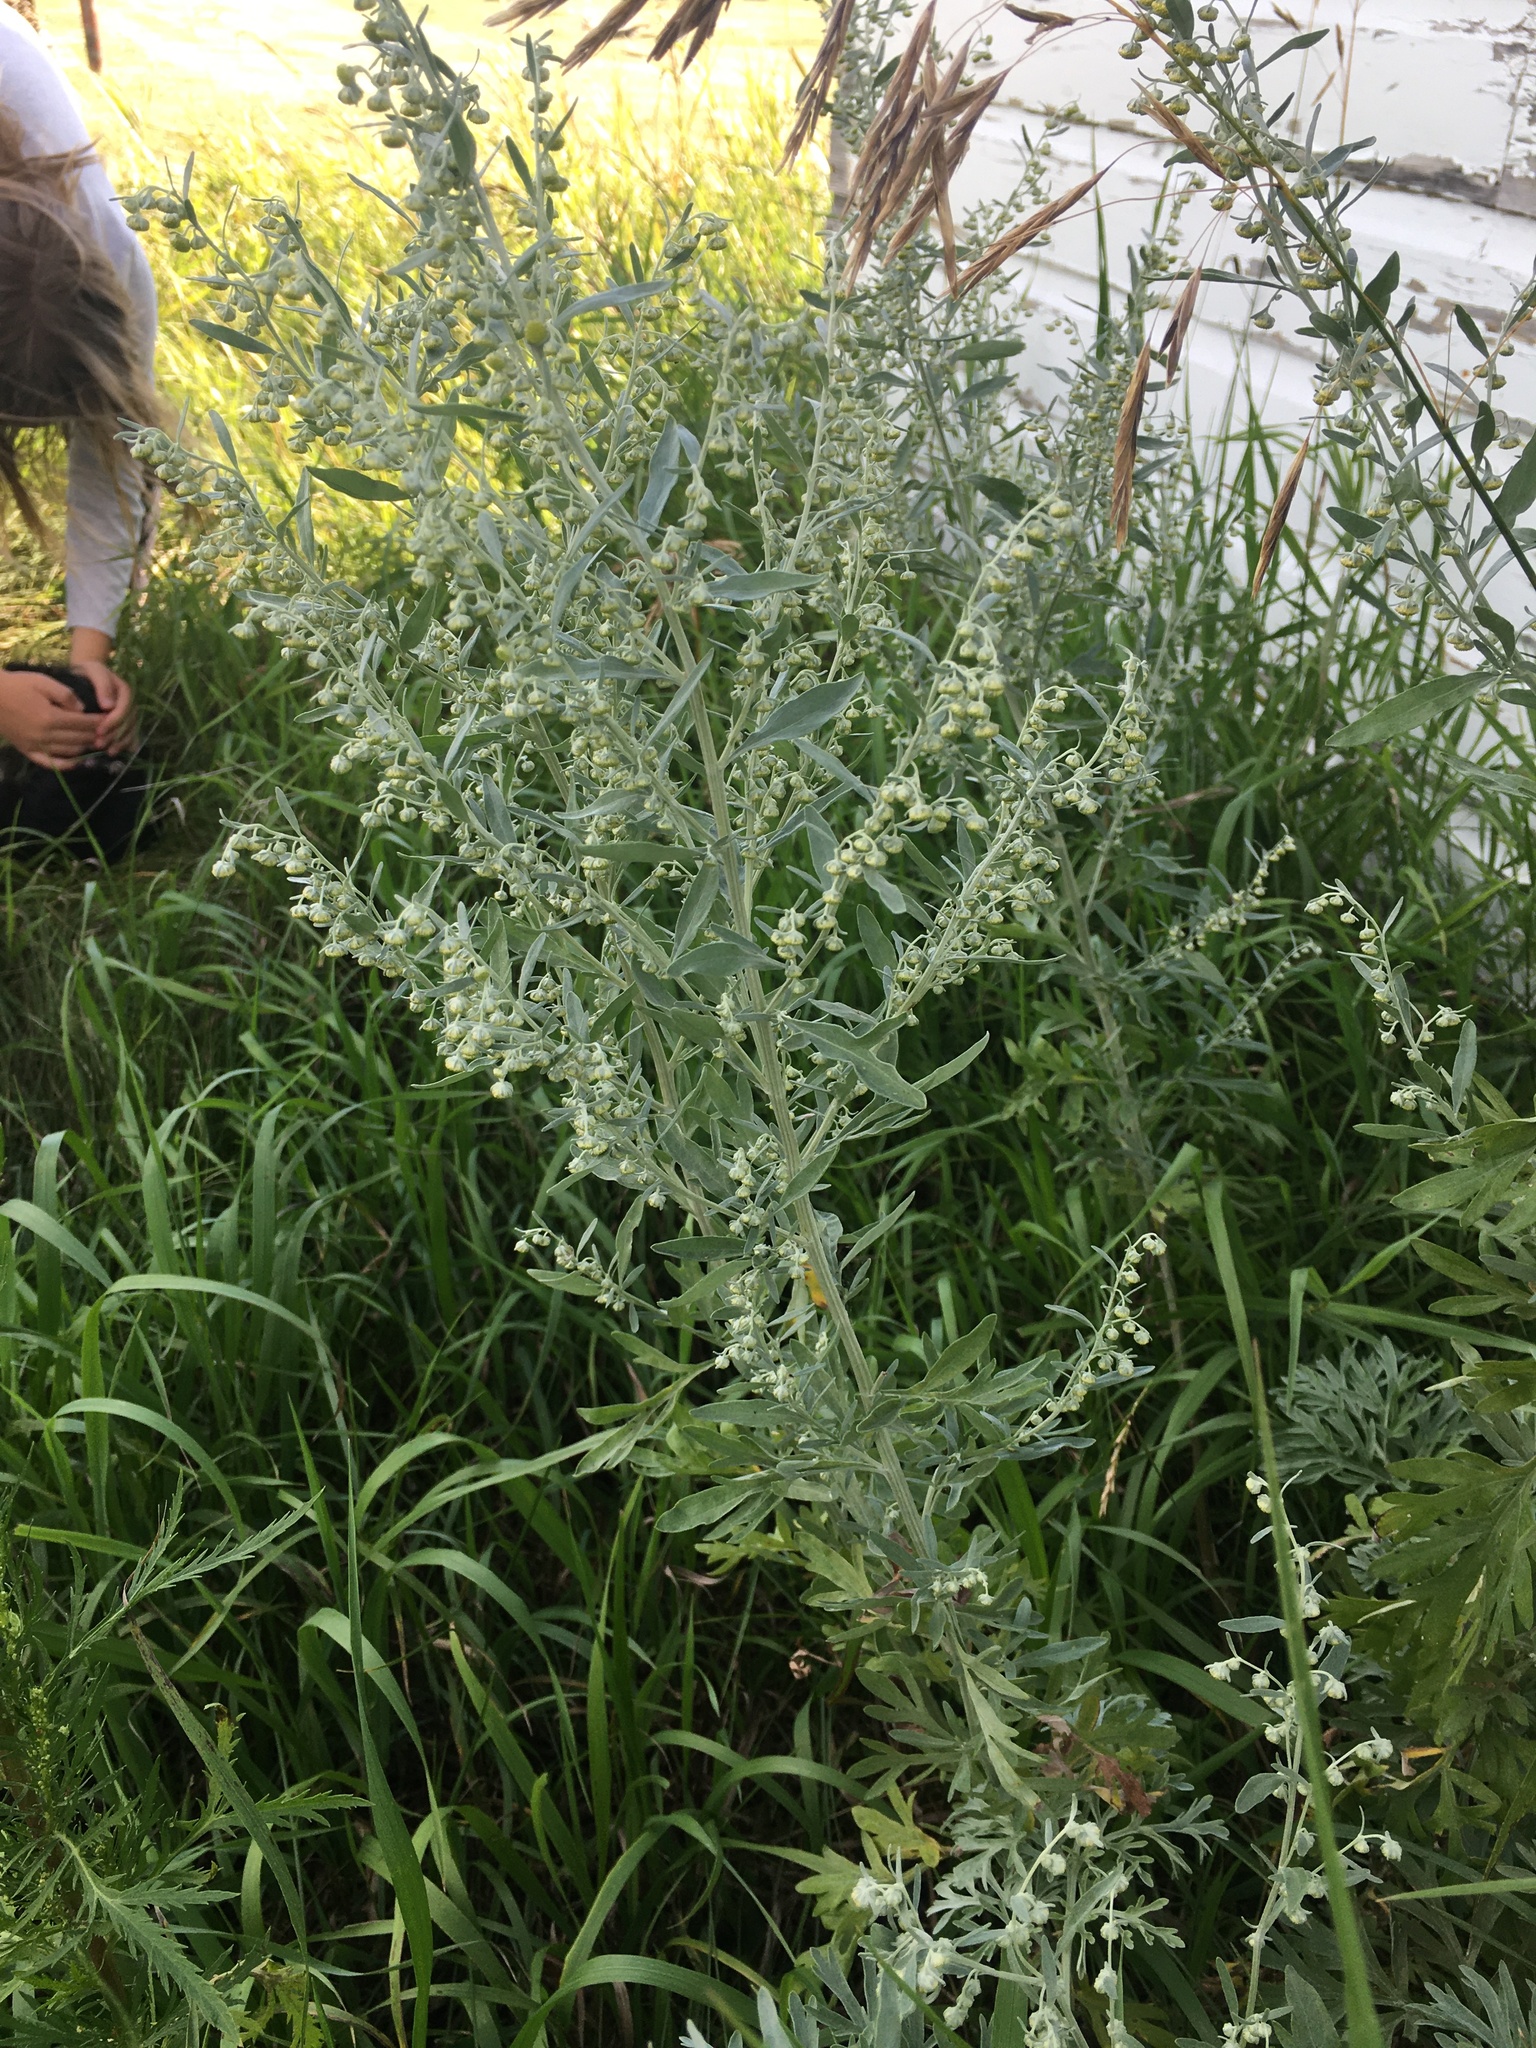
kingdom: Plantae
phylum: Tracheophyta
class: Magnoliopsida
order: Asterales
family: Asteraceae
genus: Artemisia
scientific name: Artemisia absinthium
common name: Wormwood
